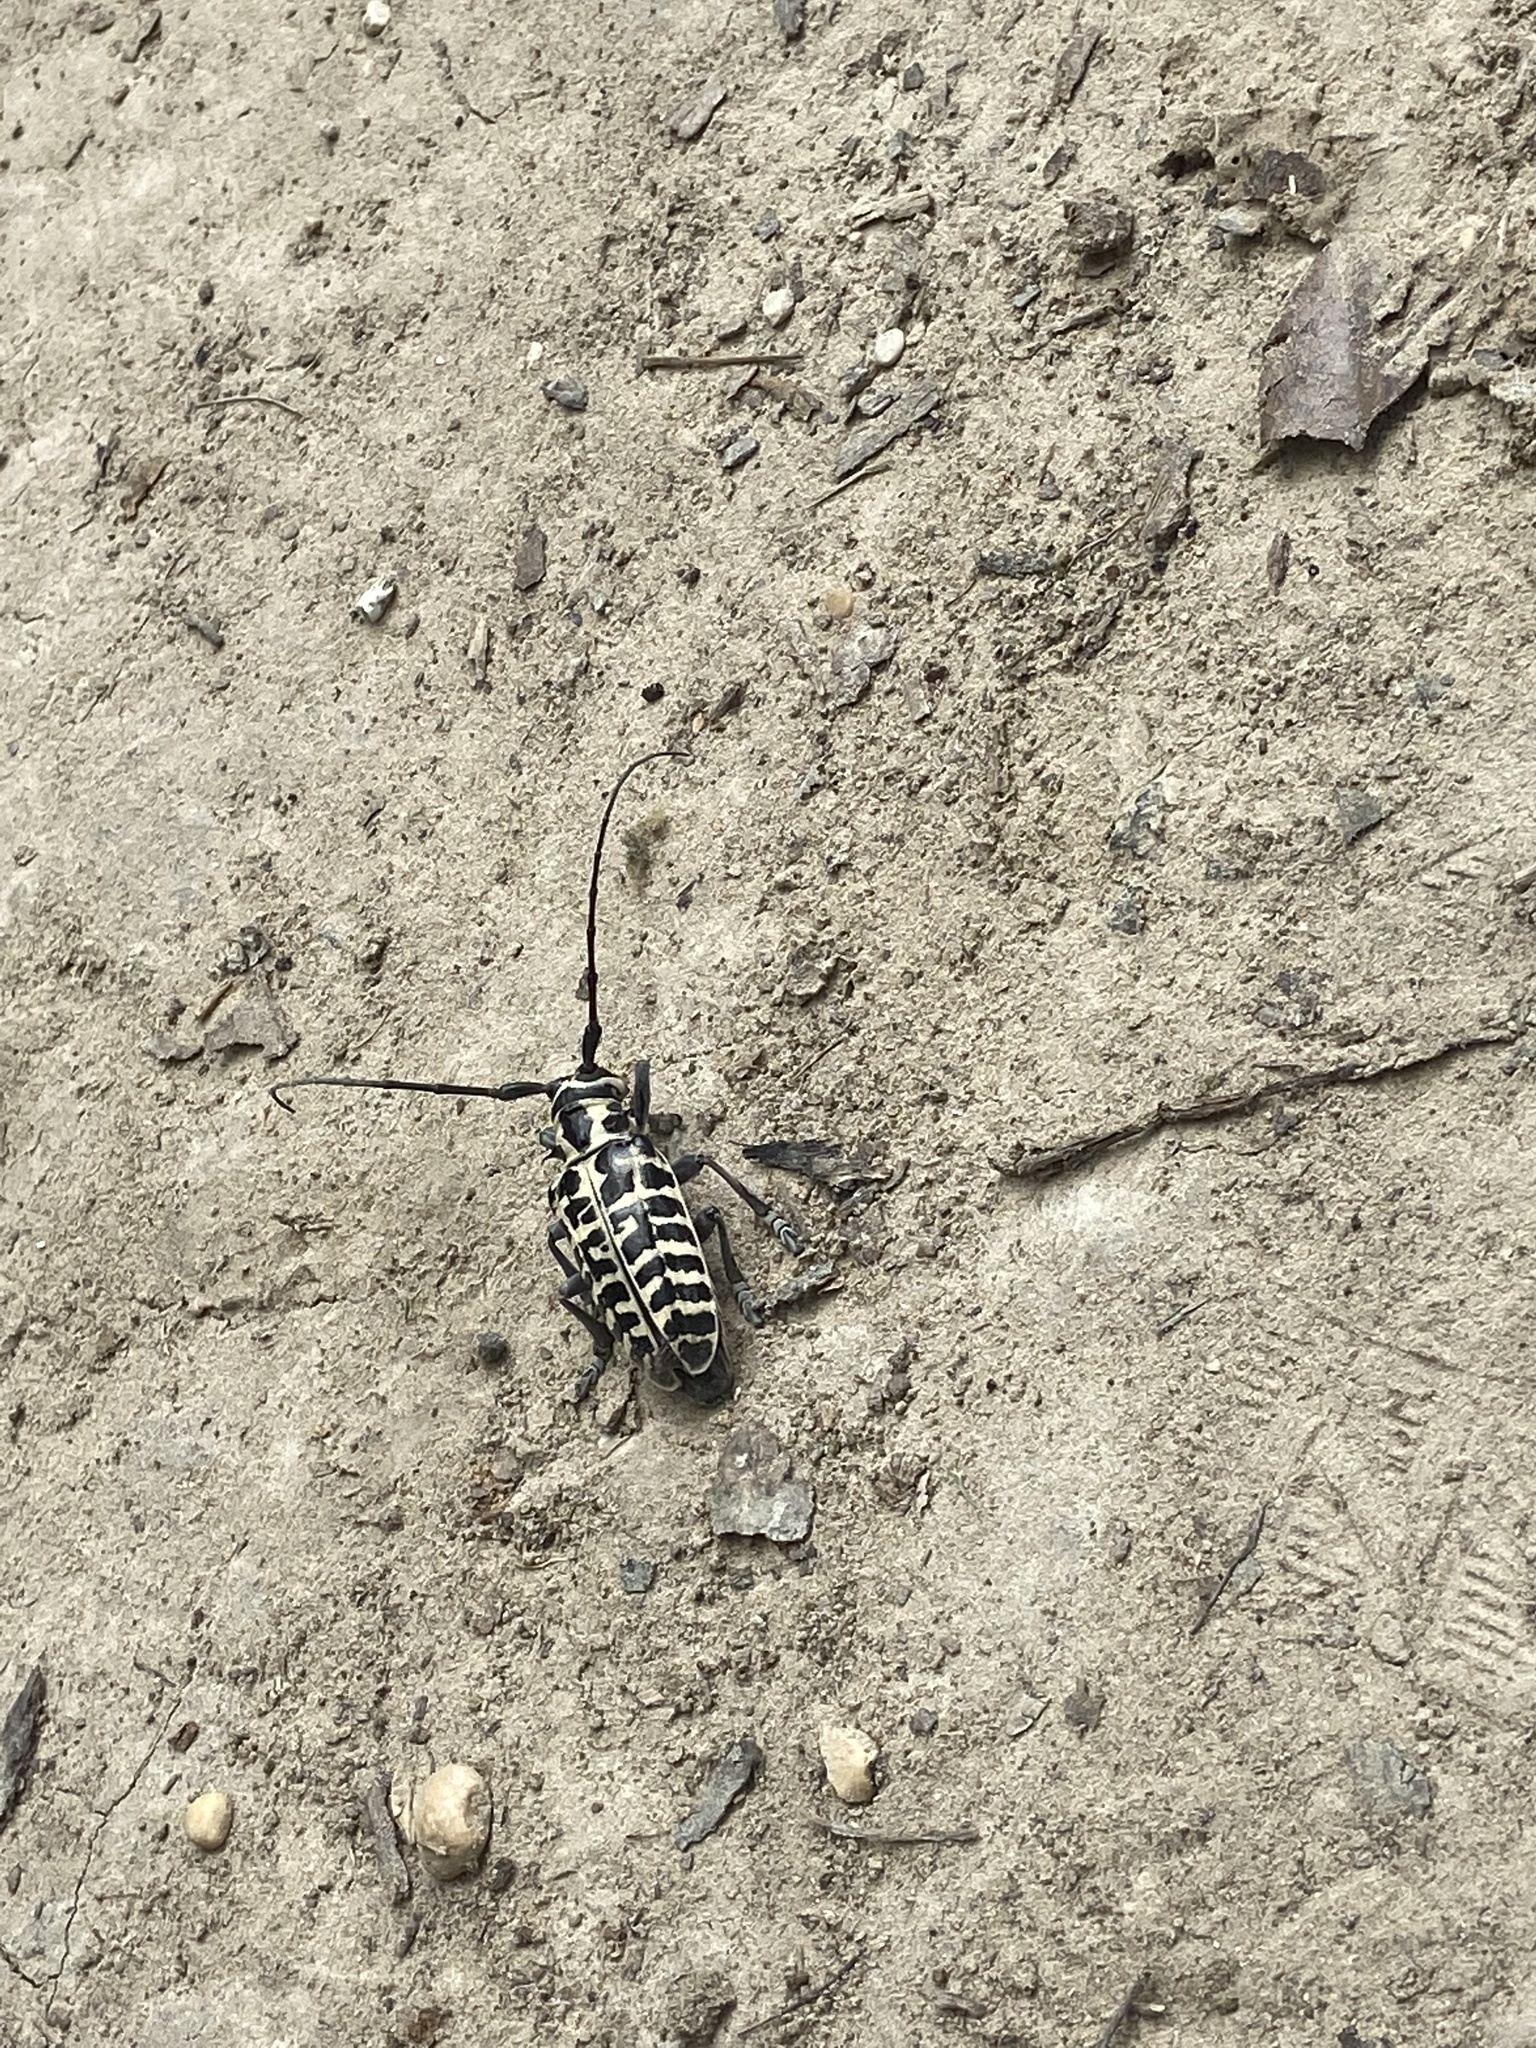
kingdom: Animalia
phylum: Arthropoda
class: Insecta
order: Coleoptera
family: Cerambycidae
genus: Plectrodera
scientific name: Plectrodera scalator
